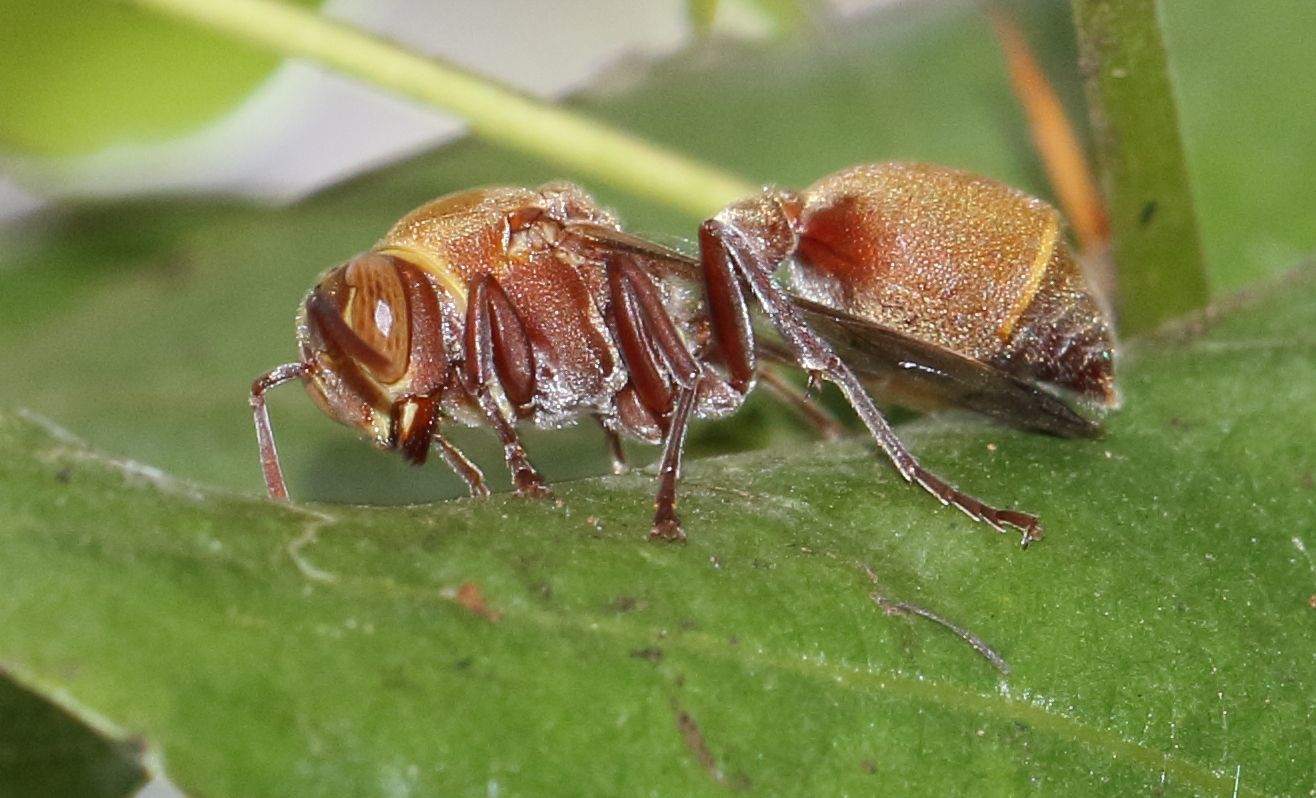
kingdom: Animalia
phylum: Arthropoda
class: Insecta
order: Hymenoptera
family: Vespidae
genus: Ropalidia
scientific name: Ropalidia distigma
